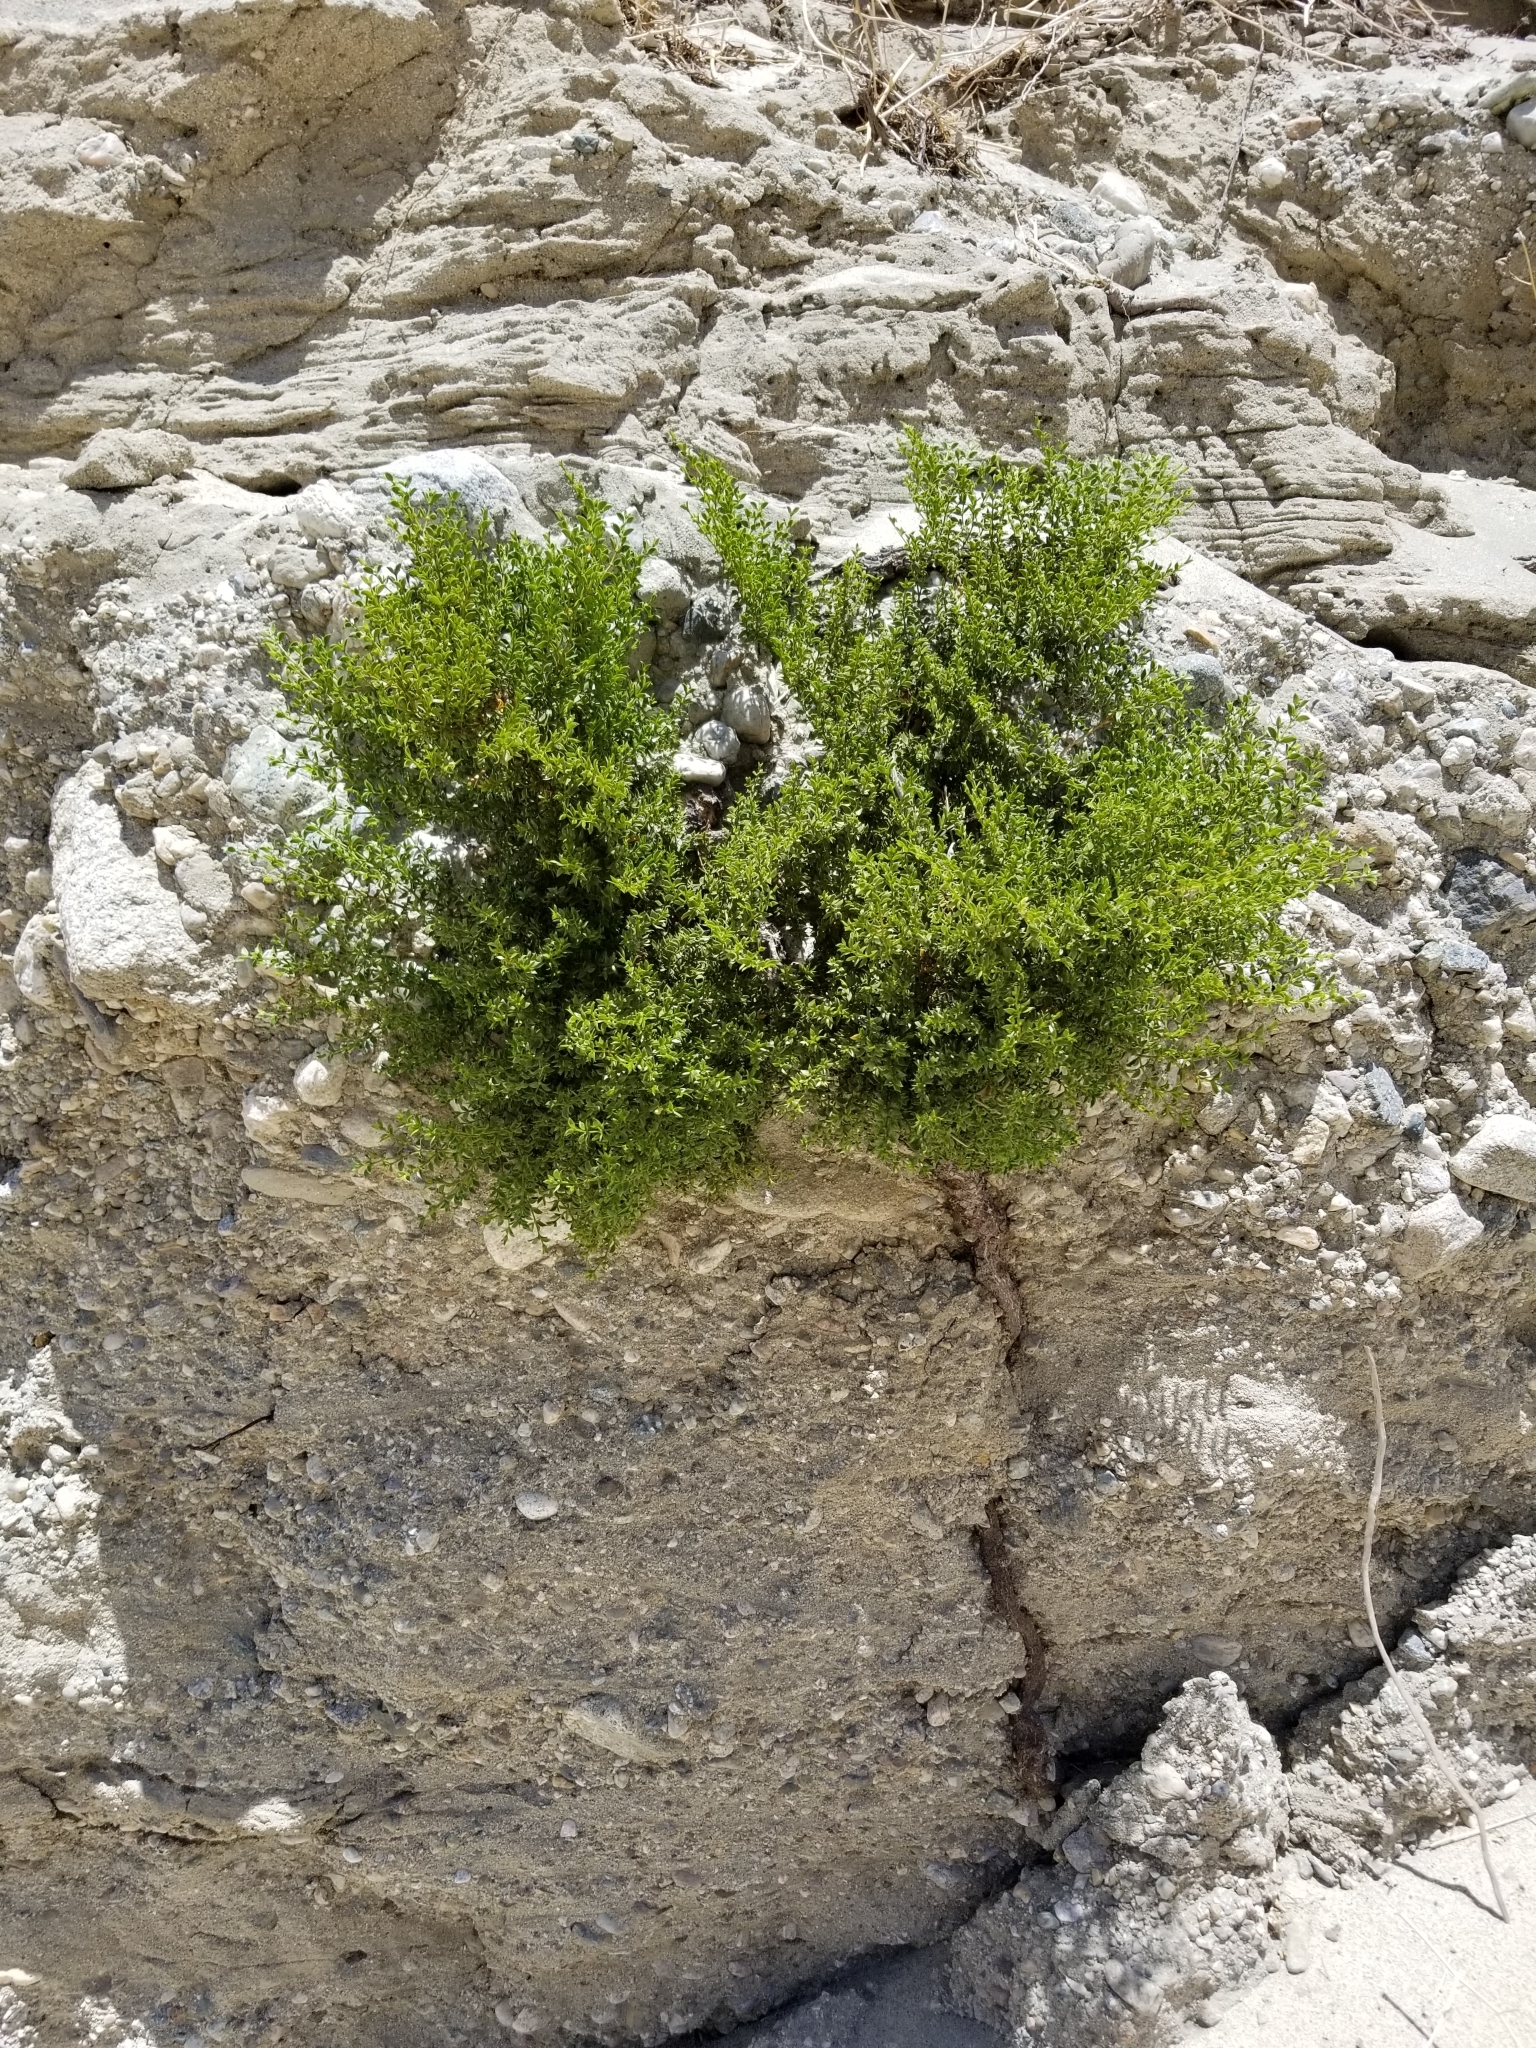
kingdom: Plantae
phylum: Tracheophyta
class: Magnoliopsida
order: Zygophyllales
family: Zygophyllaceae
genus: Larrea
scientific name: Larrea tridentata
